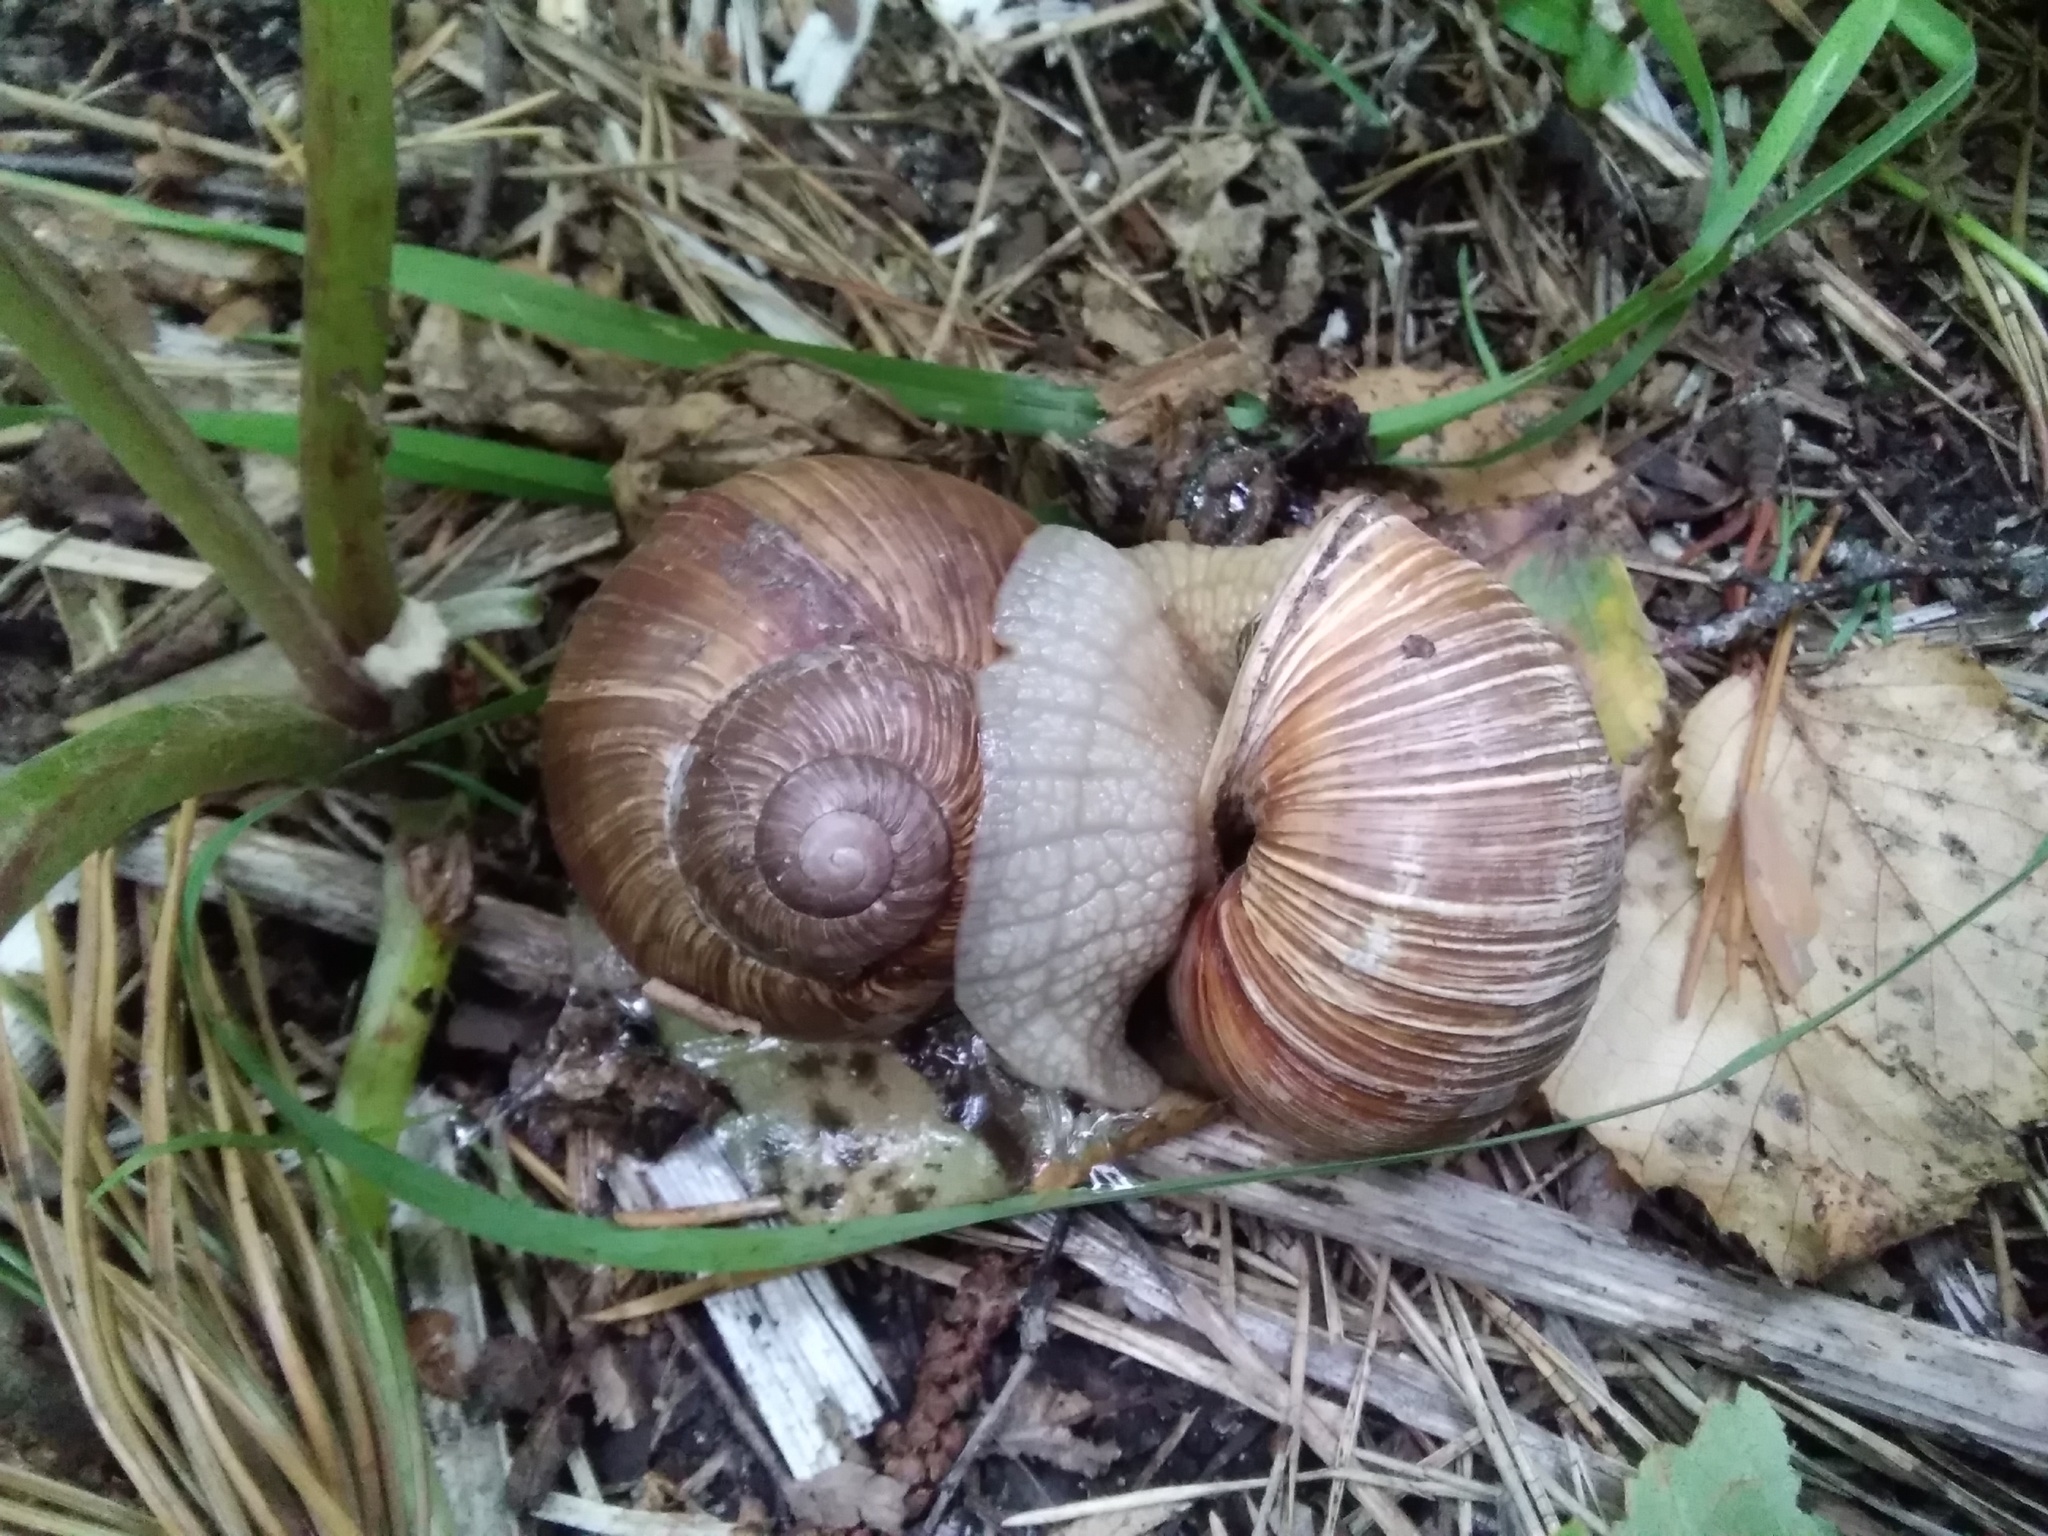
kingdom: Animalia
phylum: Mollusca
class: Gastropoda
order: Stylommatophora
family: Helicidae
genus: Helix
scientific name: Helix pomatia
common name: Roman snail
